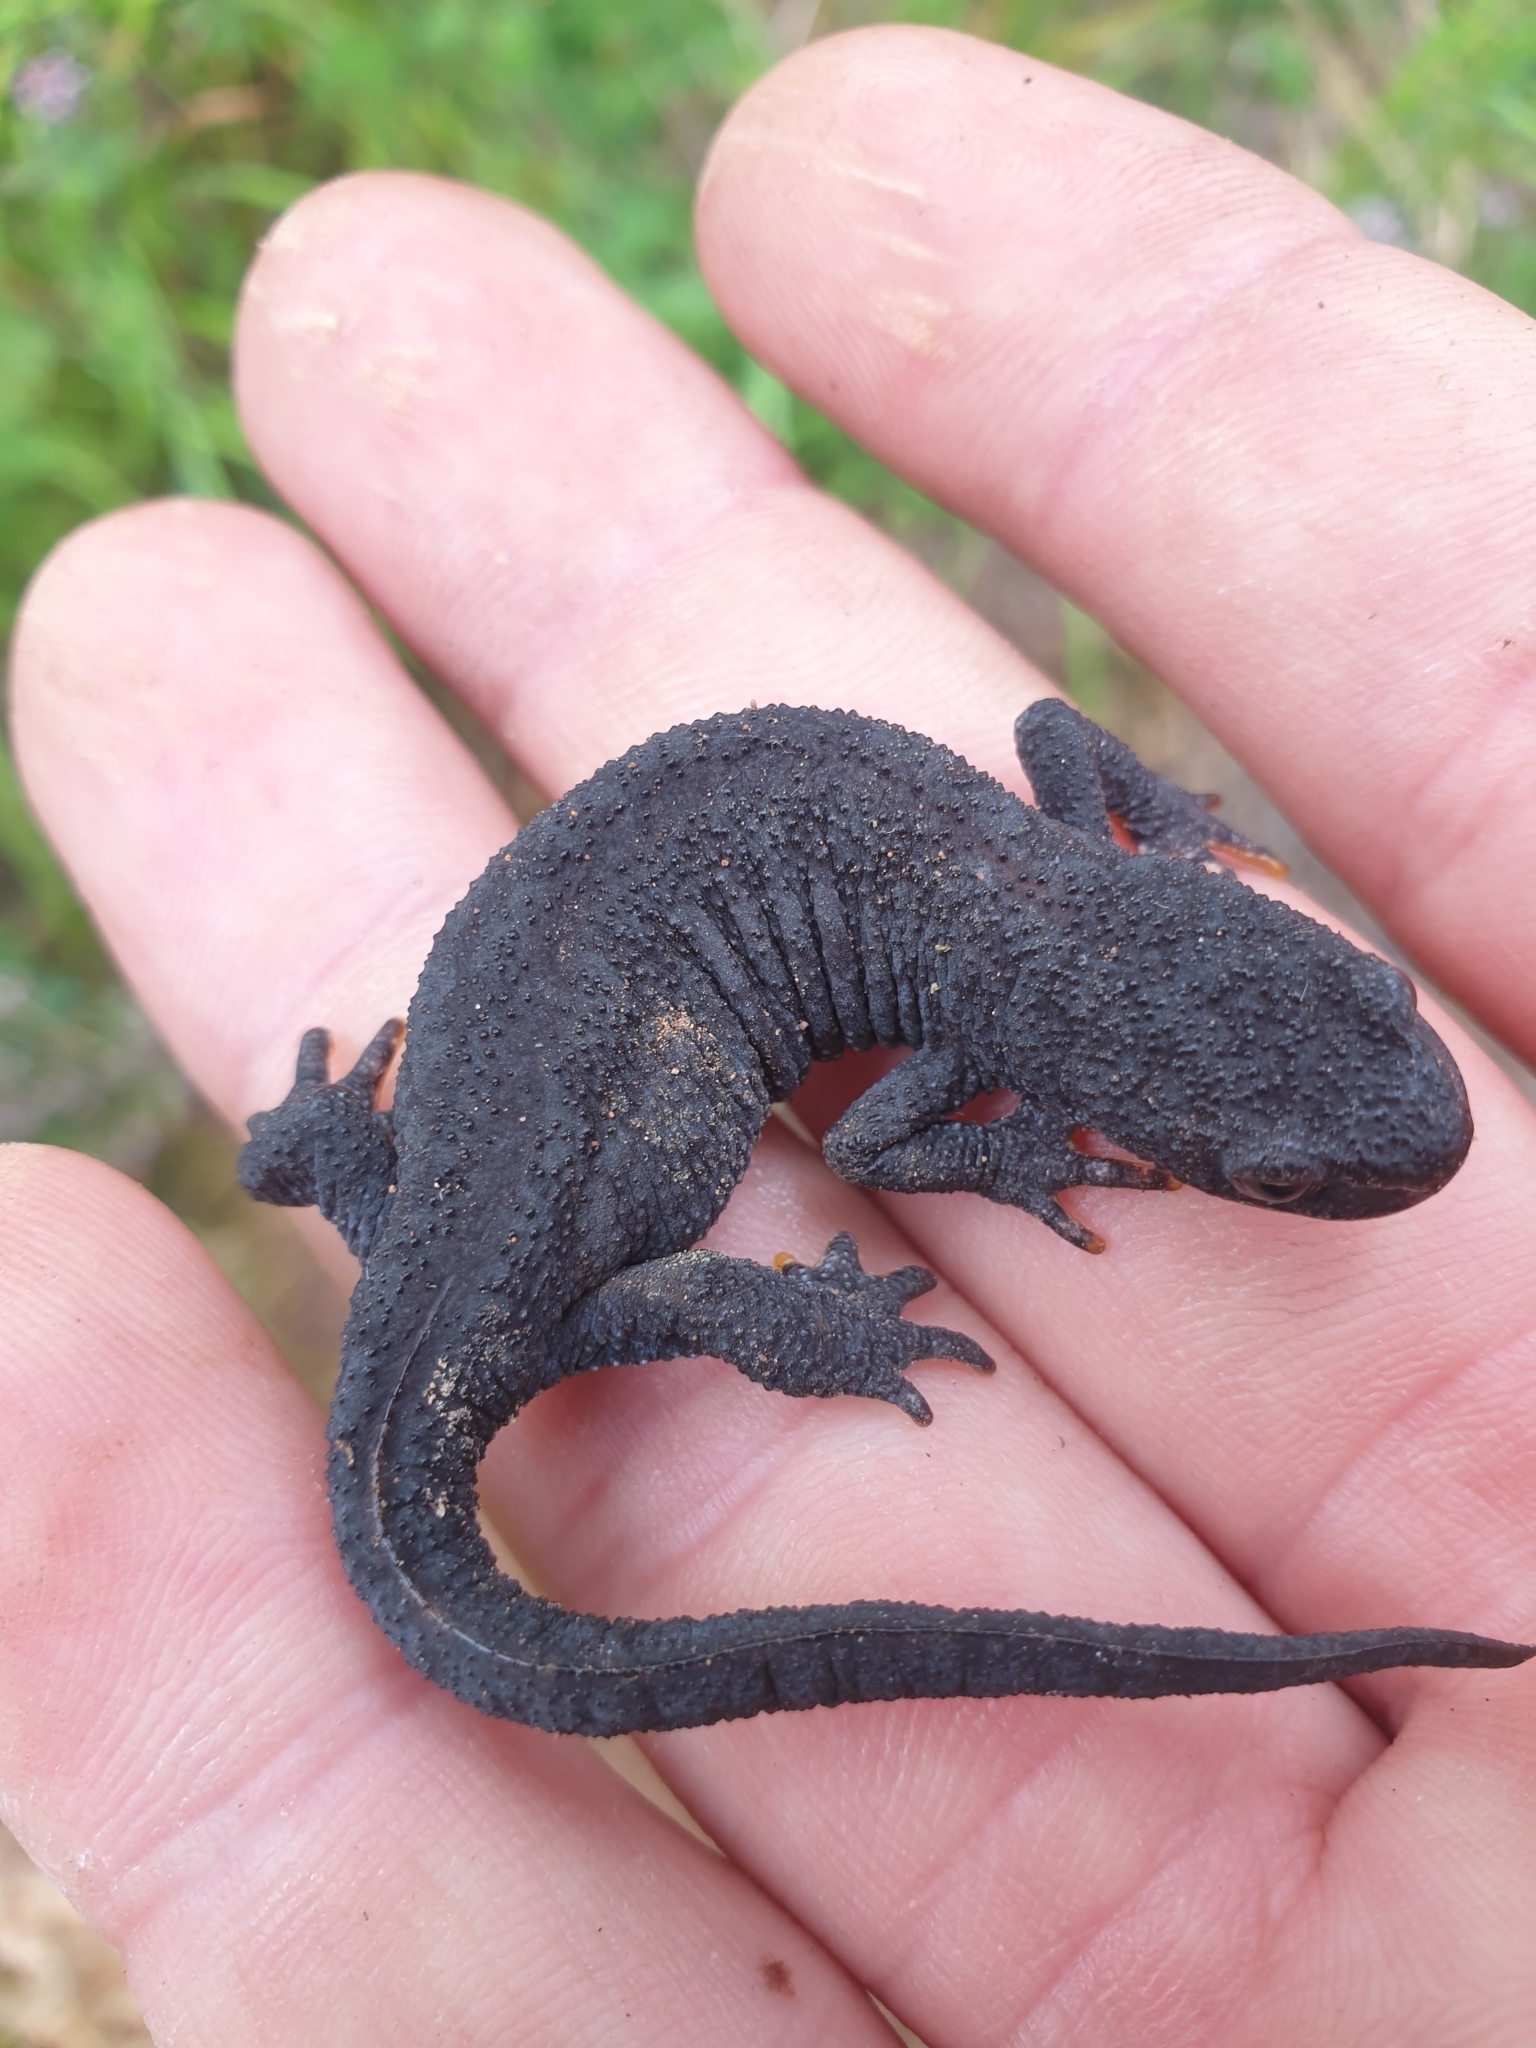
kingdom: Animalia
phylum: Chordata
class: Amphibia
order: Caudata
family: Salamandridae
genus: Ichthyosaura
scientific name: Ichthyosaura alpestris
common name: Alpine newt
